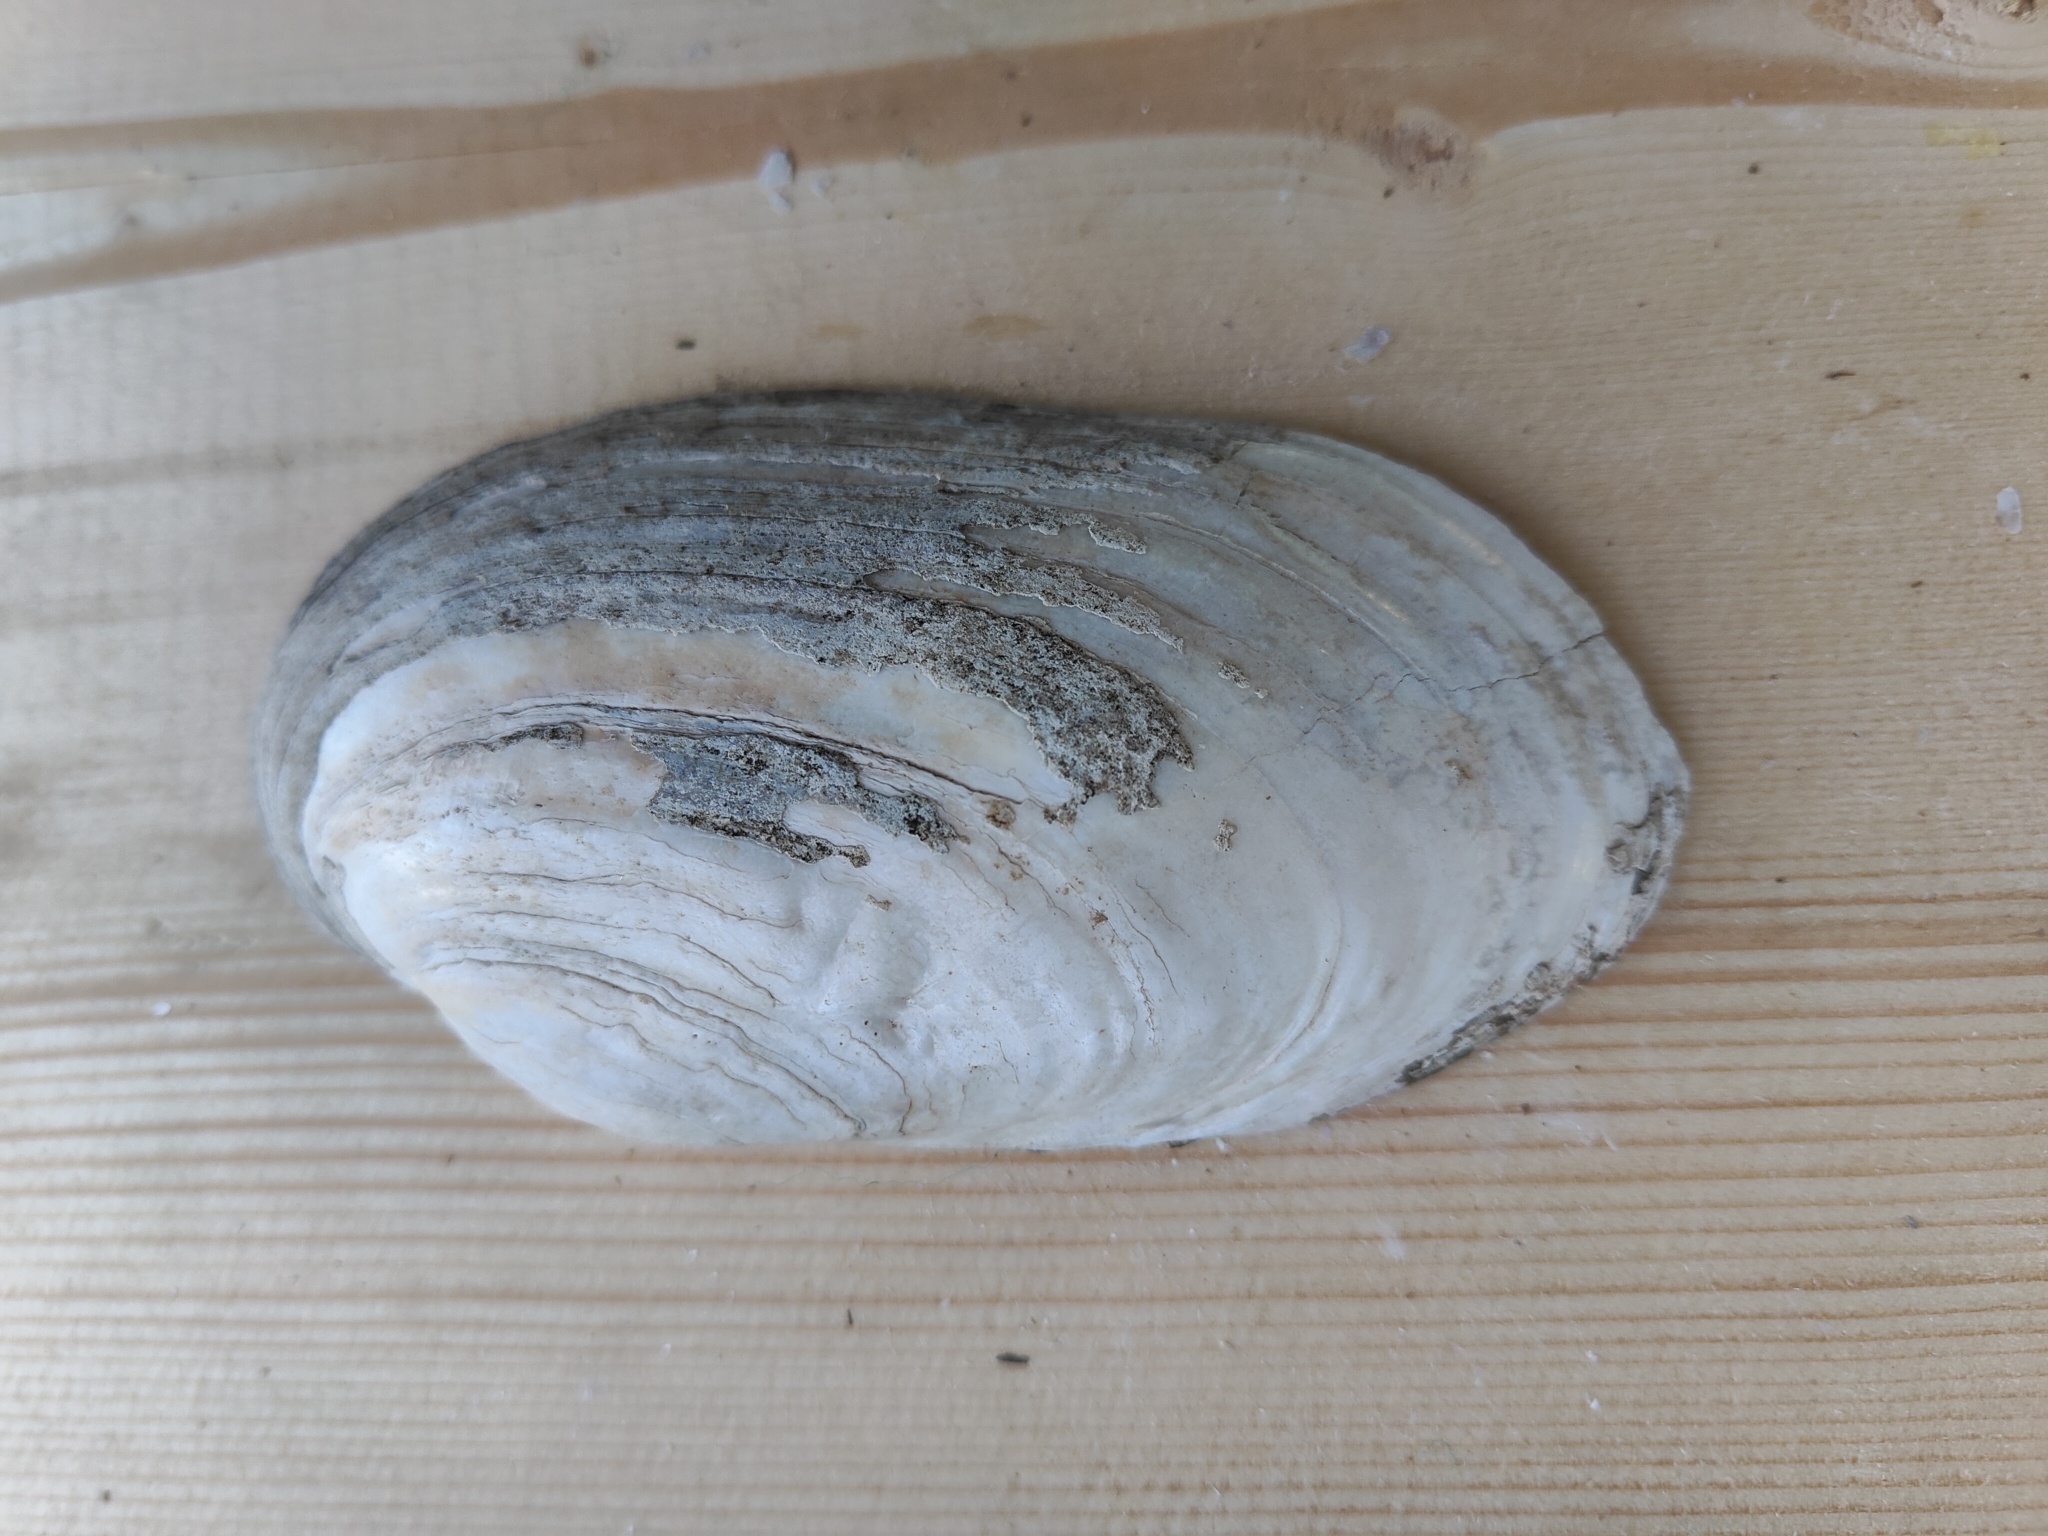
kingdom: Animalia
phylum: Mollusca
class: Bivalvia
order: Unionida
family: Unionidae
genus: Lampsilis
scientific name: Lampsilis siliquoidea
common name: Fatmucket
